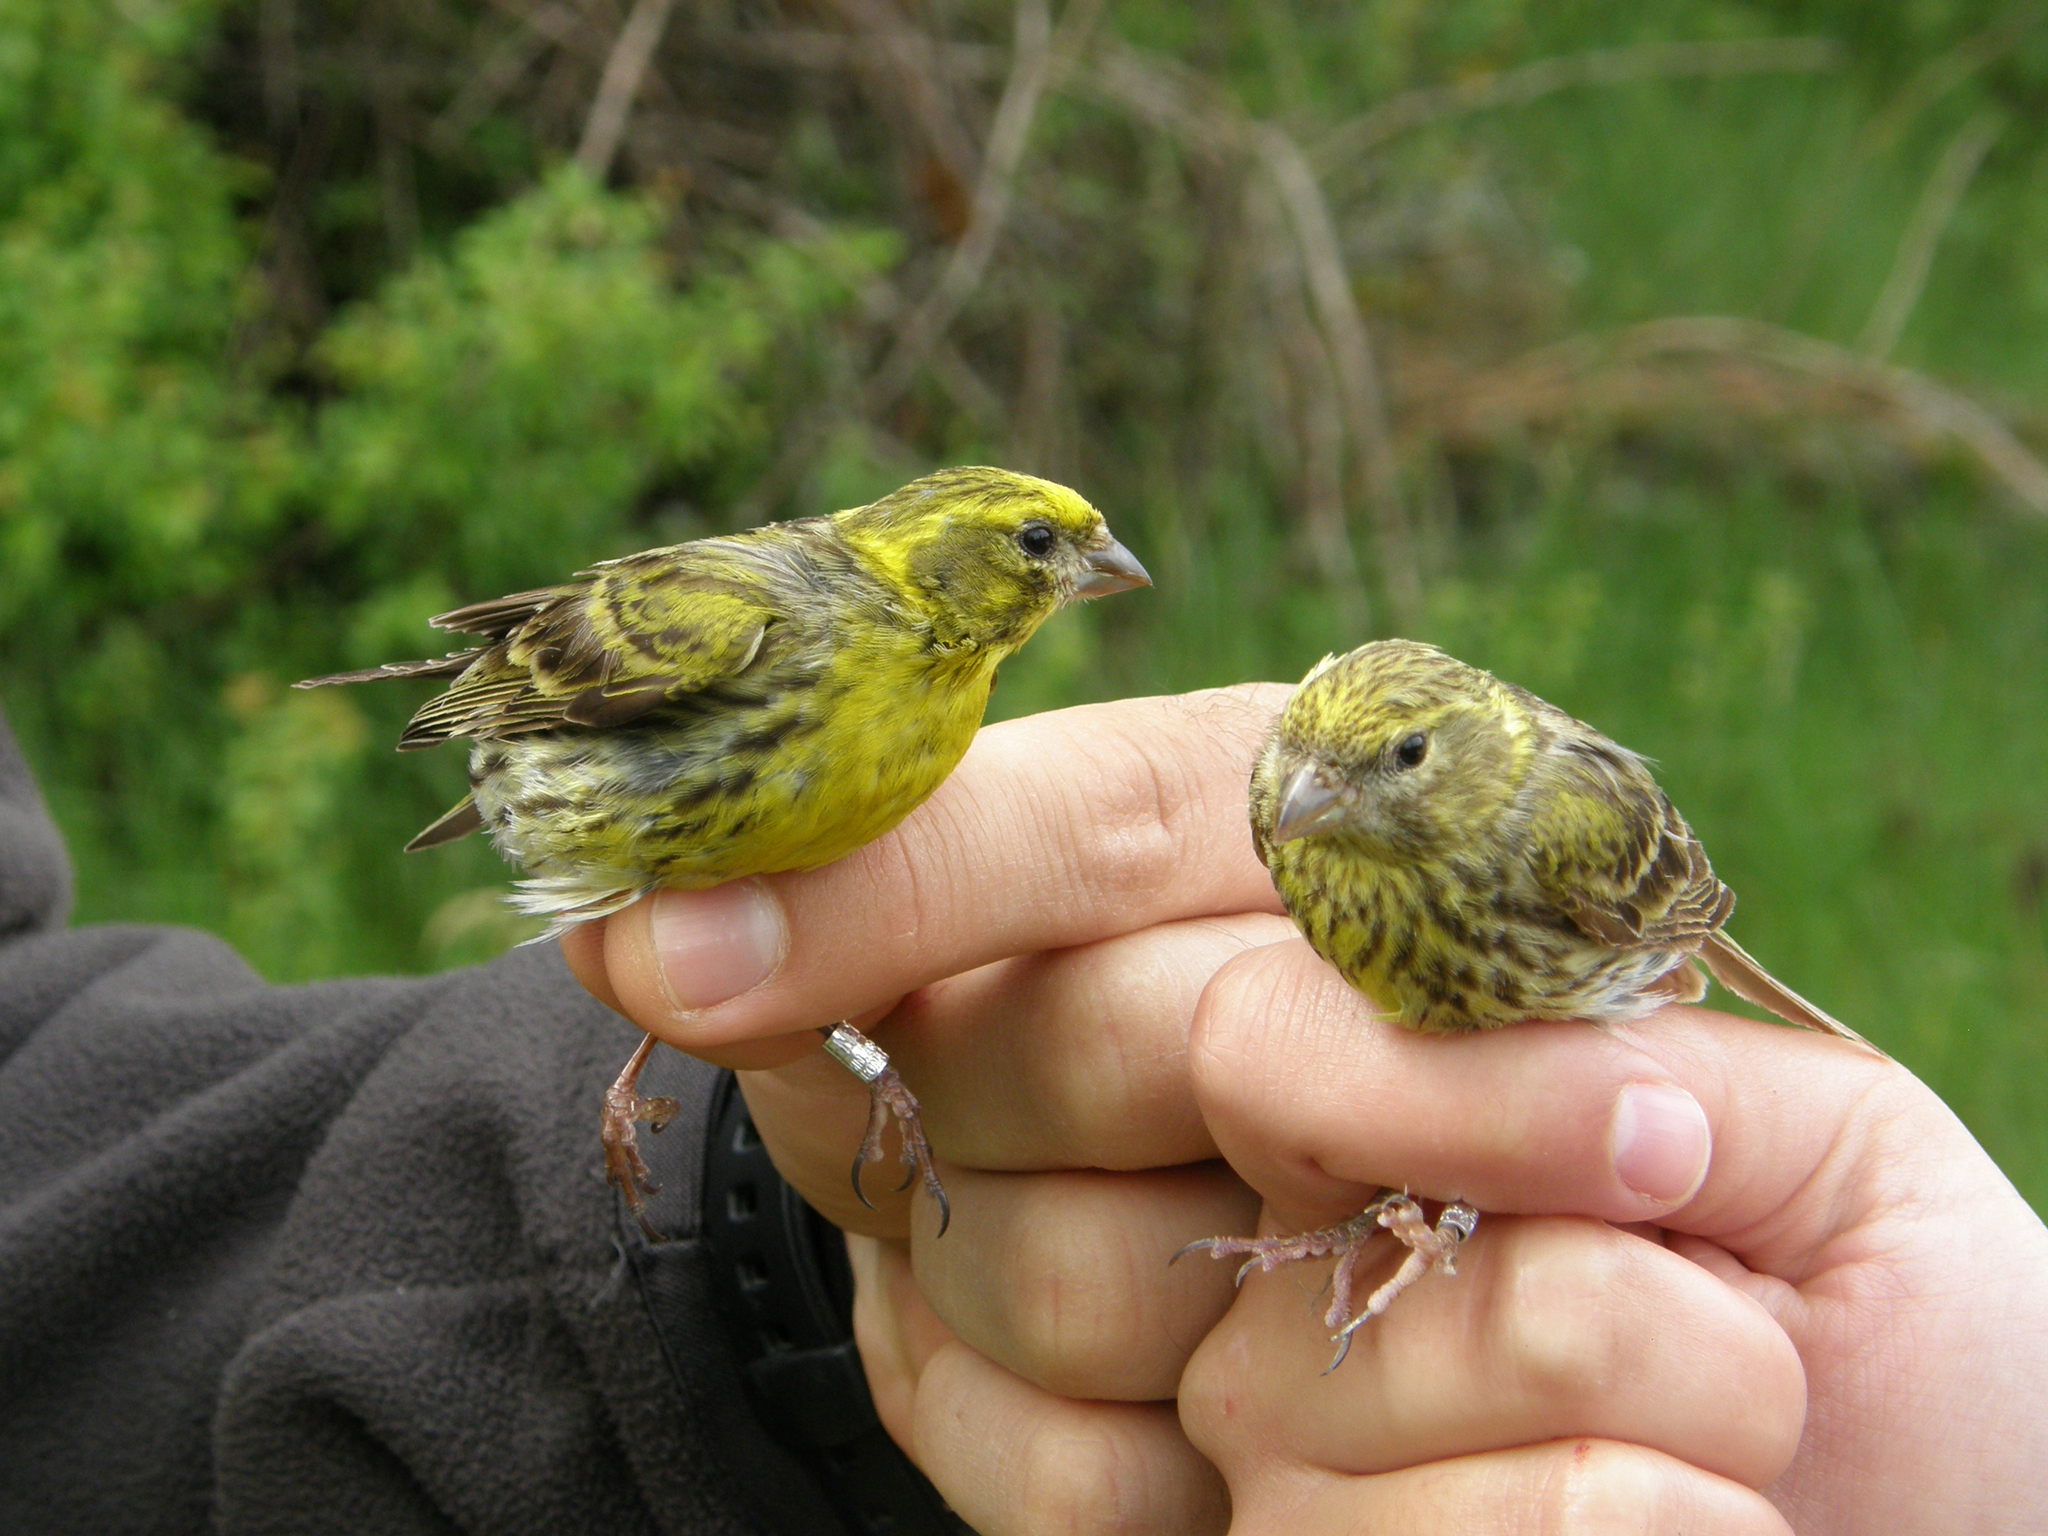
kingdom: Animalia
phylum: Chordata
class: Aves
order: Passeriformes
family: Fringillidae
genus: Serinus
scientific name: Serinus serinus
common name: European serin
